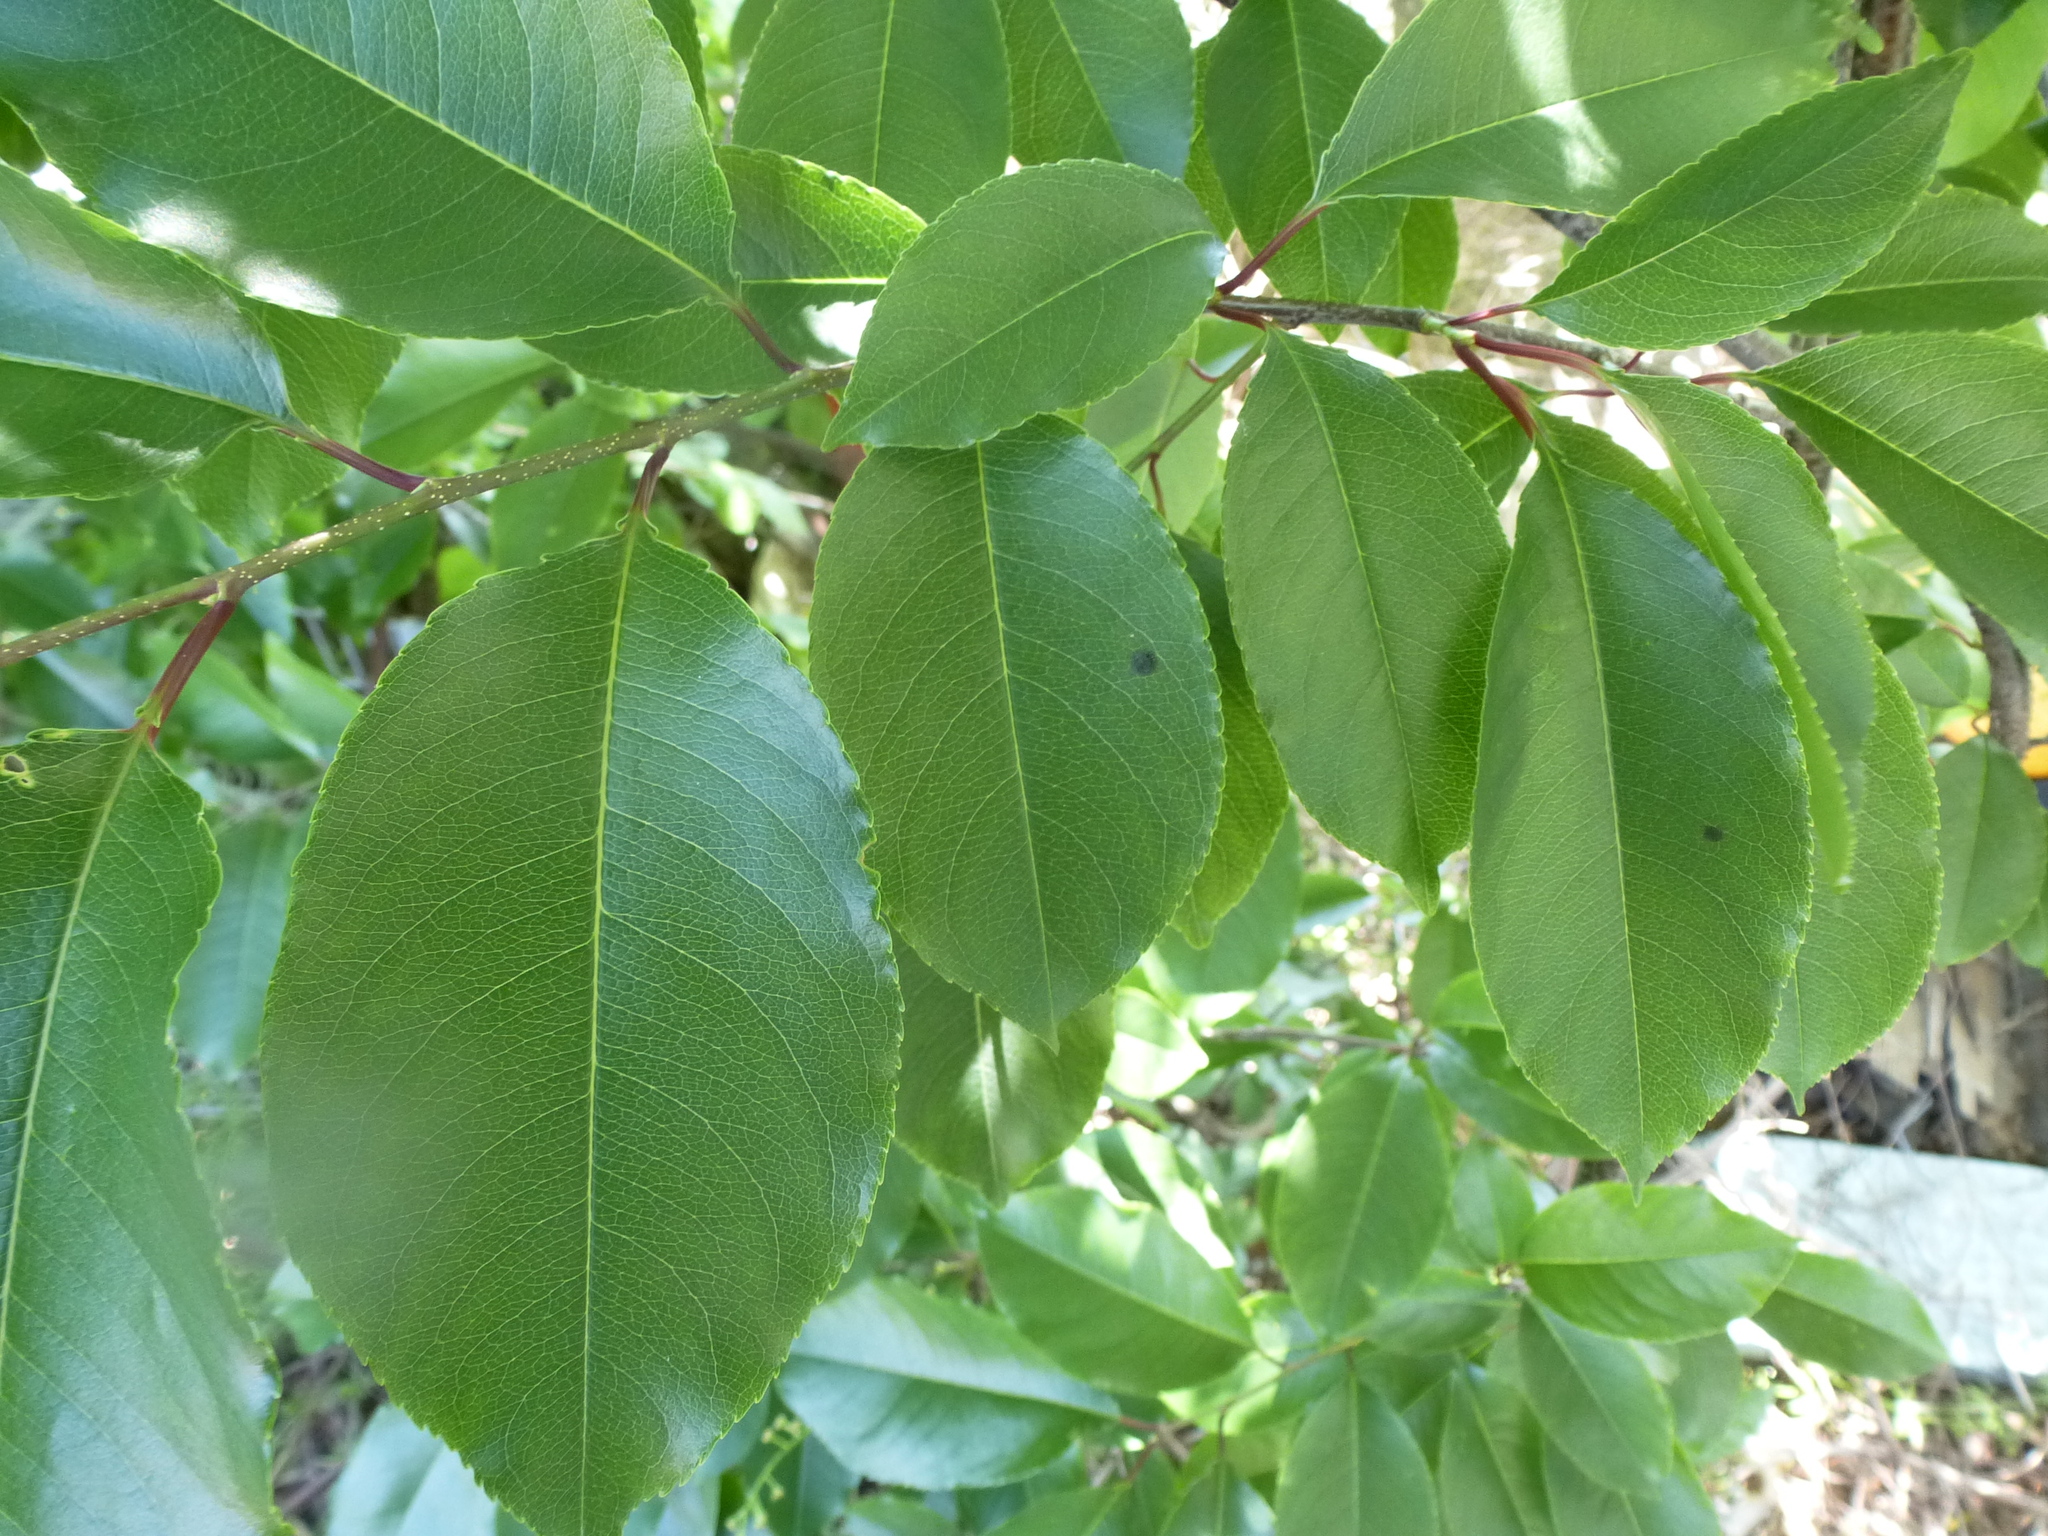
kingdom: Plantae
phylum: Tracheophyta
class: Magnoliopsida
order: Rosales
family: Rosaceae
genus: Prunus
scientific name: Prunus serotina
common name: Black cherry
